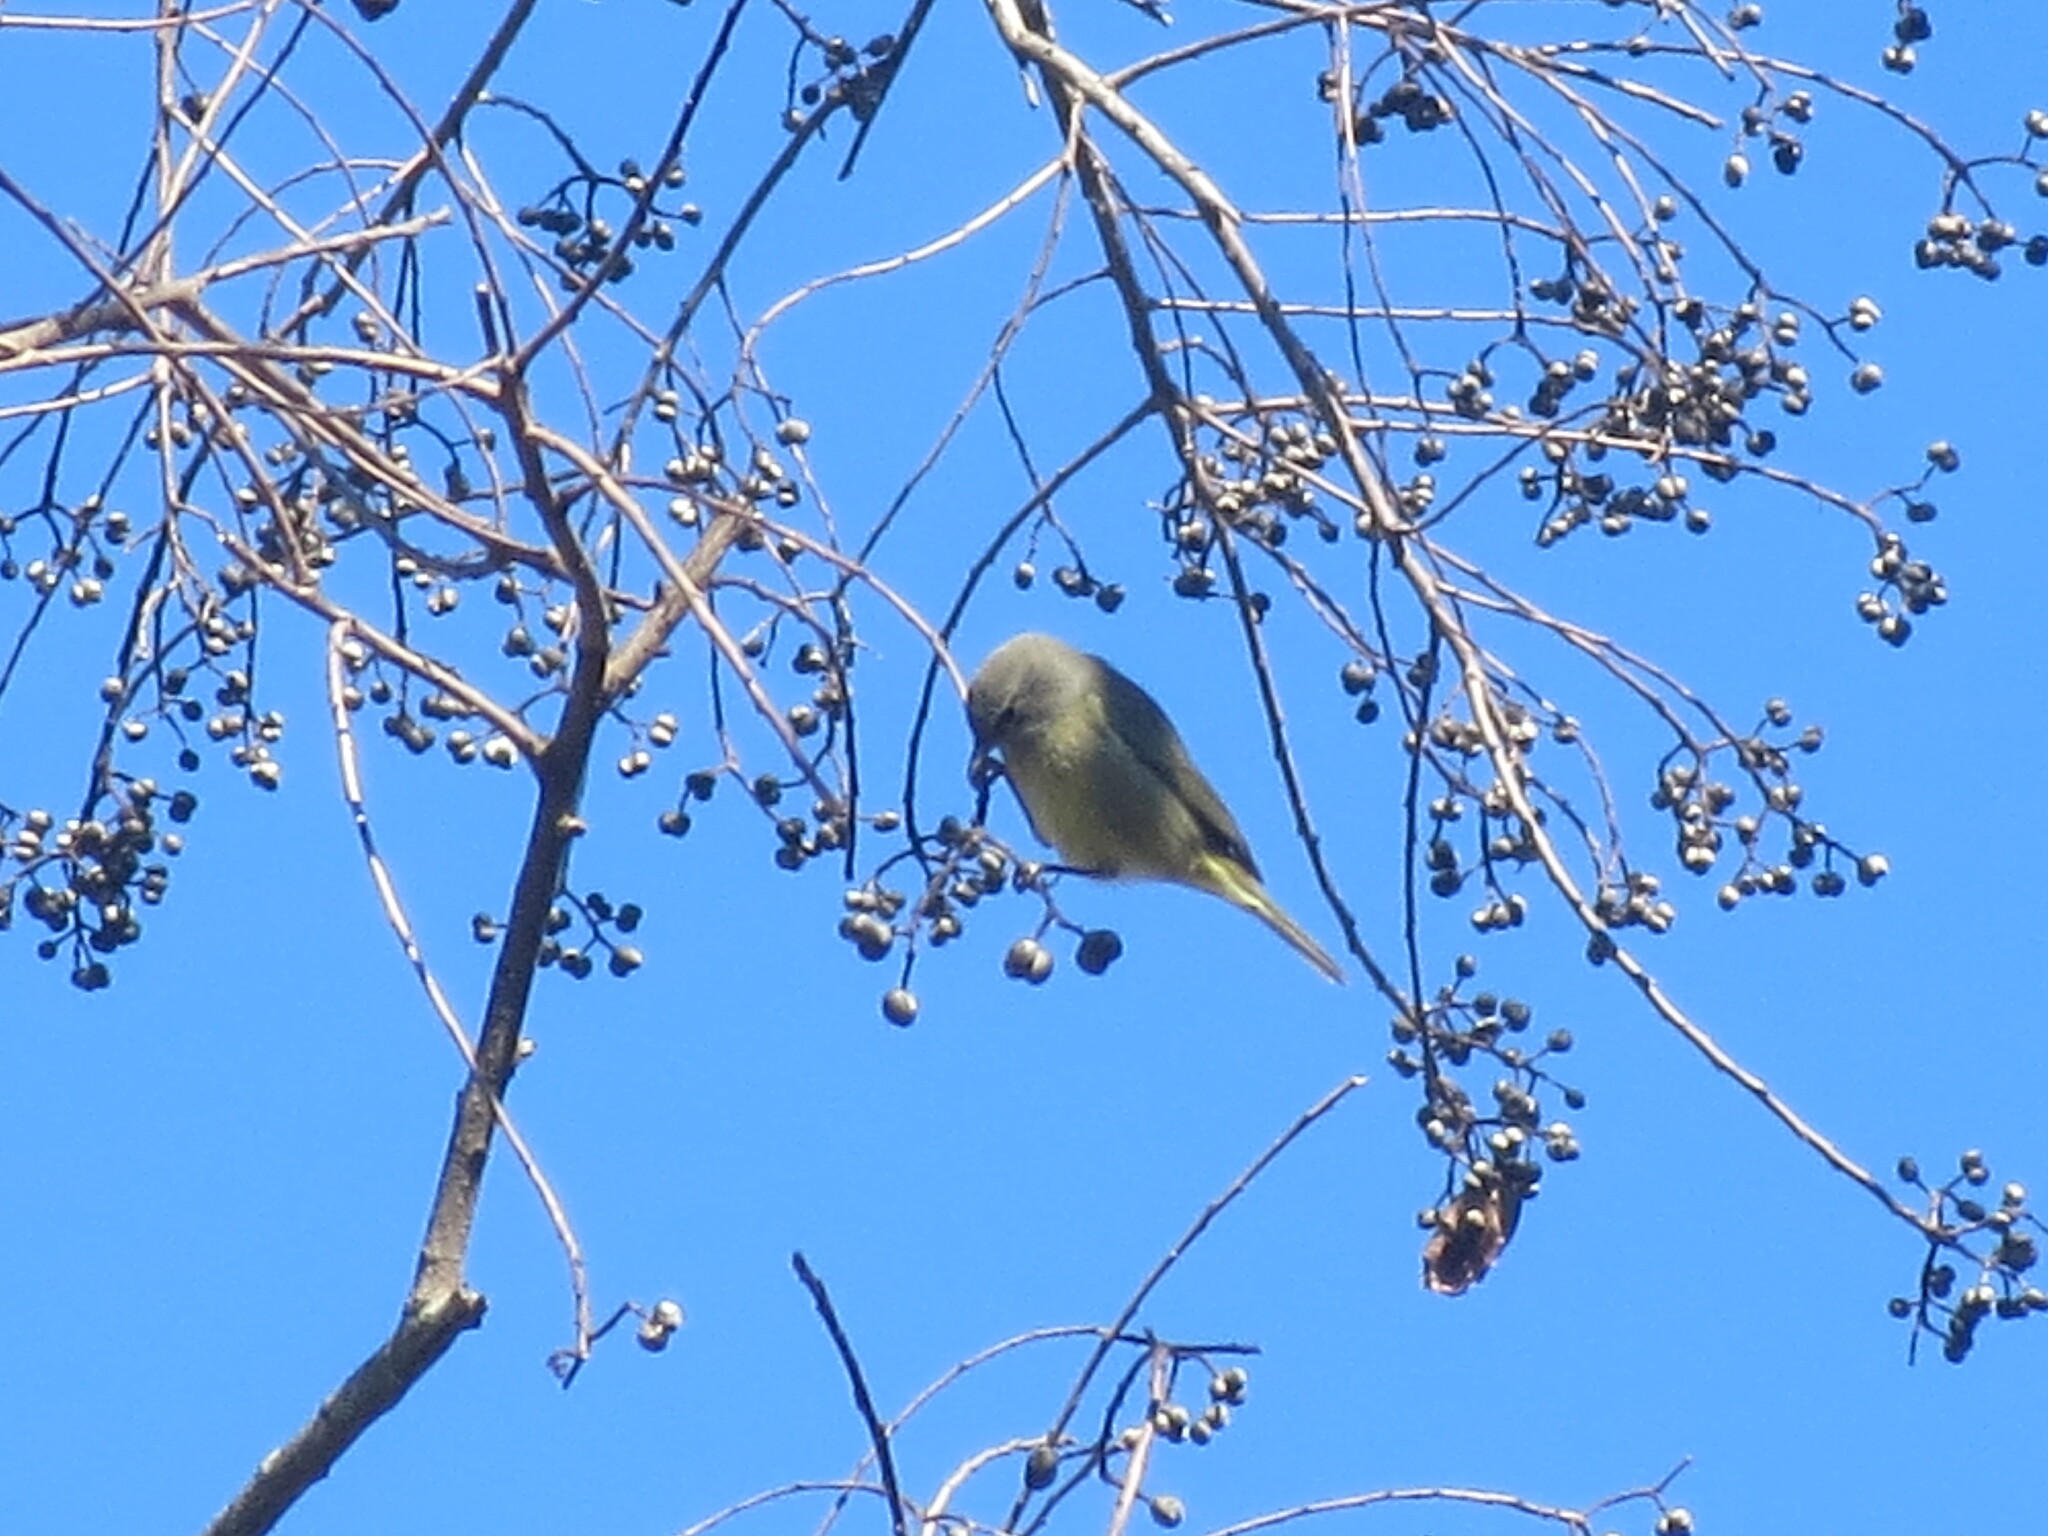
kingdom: Animalia
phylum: Chordata
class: Aves
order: Passeriformes
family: Parulidae
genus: Leiothlypis
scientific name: Leiothlypis celata
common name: Orange-crowned warbler
